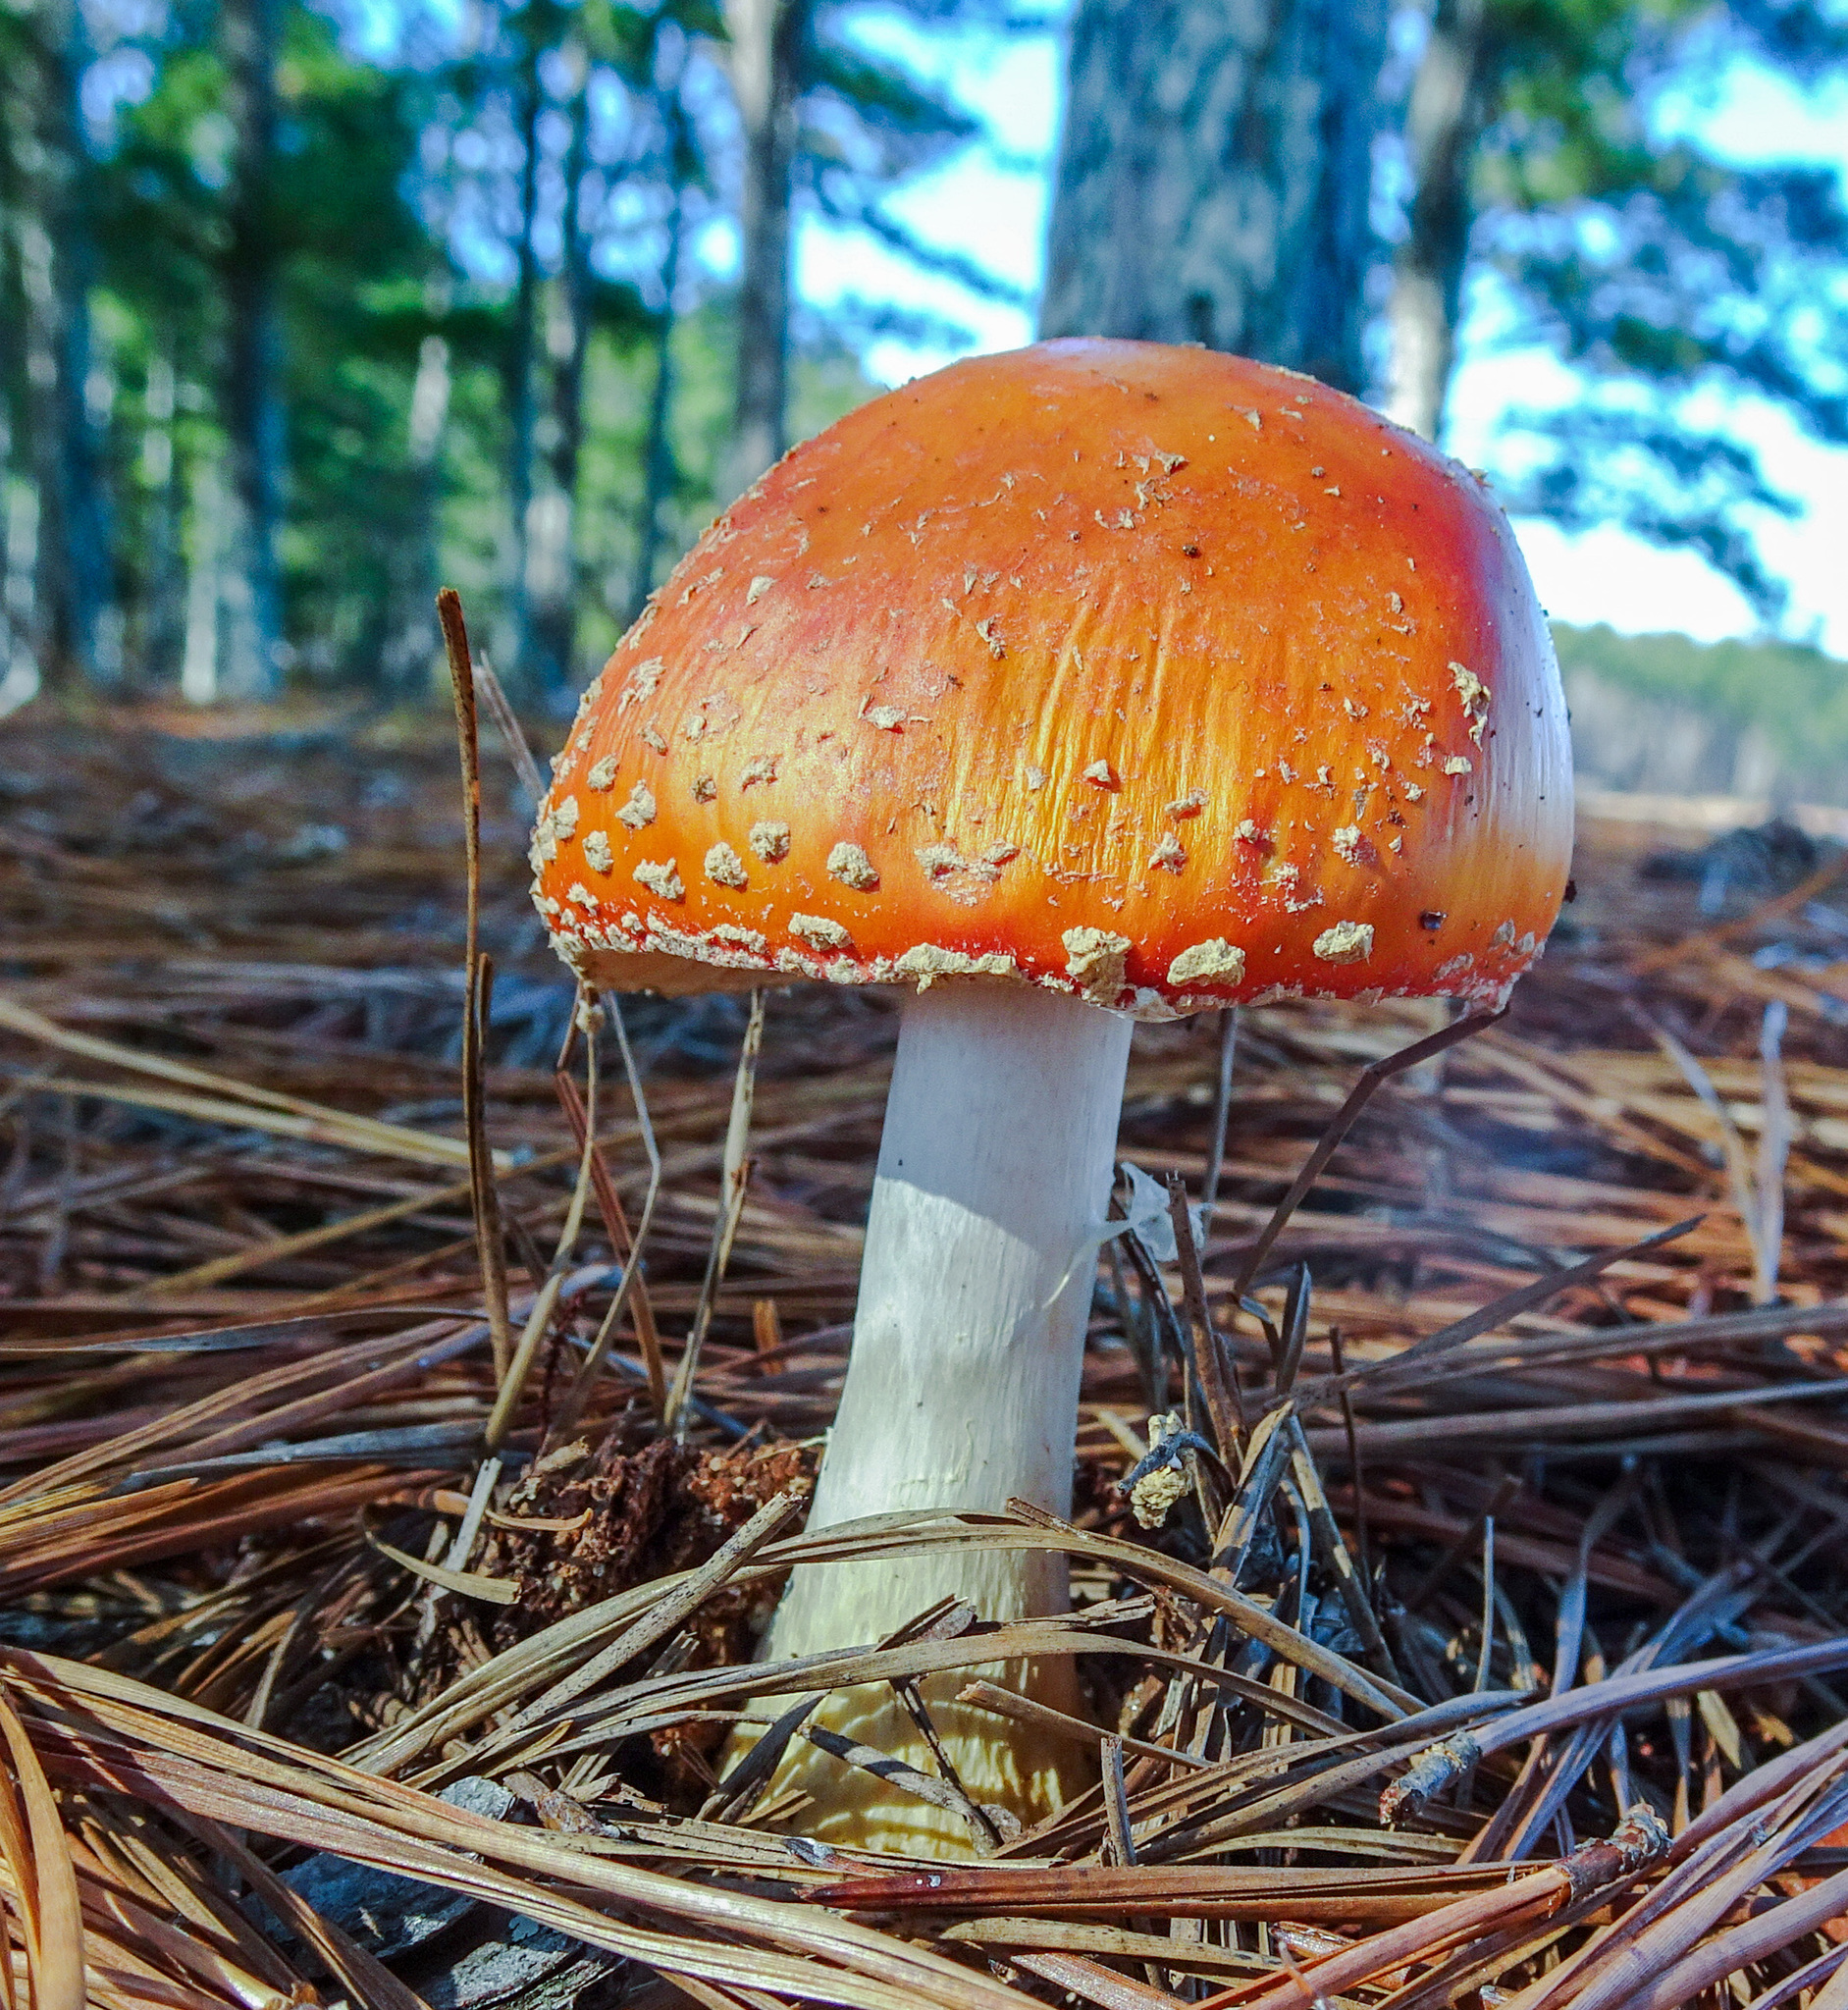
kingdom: Fungi
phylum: Basidiomycota
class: Agaricomycetes
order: Agaricales
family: Amanitaceae
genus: Amanita
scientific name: Amanita persicina
